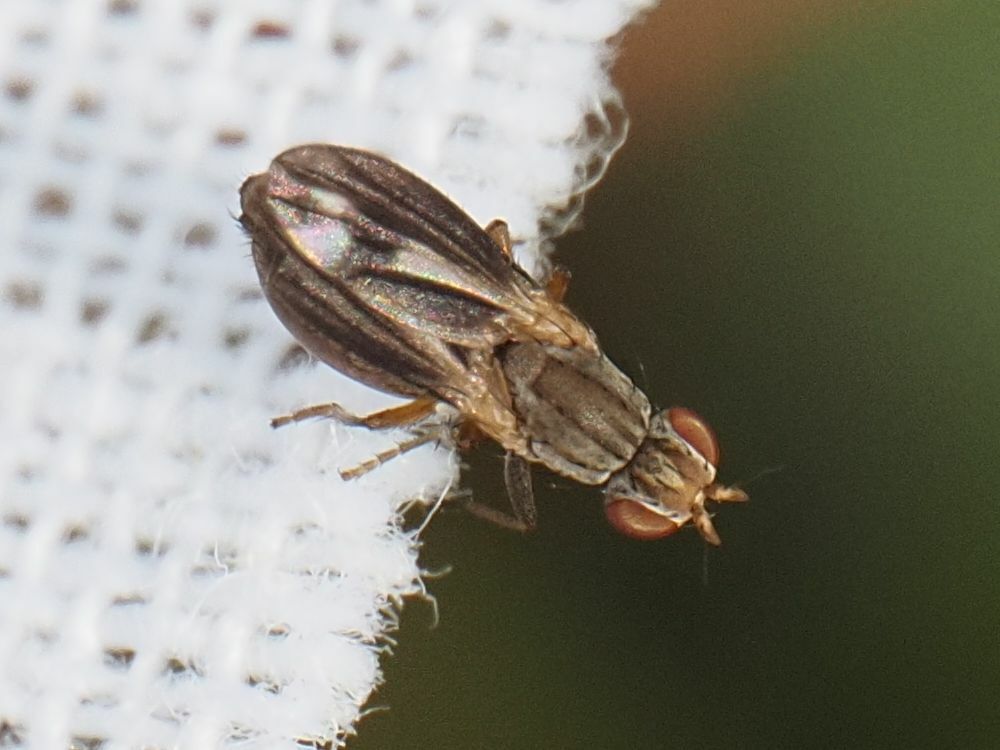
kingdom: Animalia
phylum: Arthropoda
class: Insecta
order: Diptera
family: Heleomyzidae
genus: Trixoscelis
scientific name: Trixoscelis marginella
